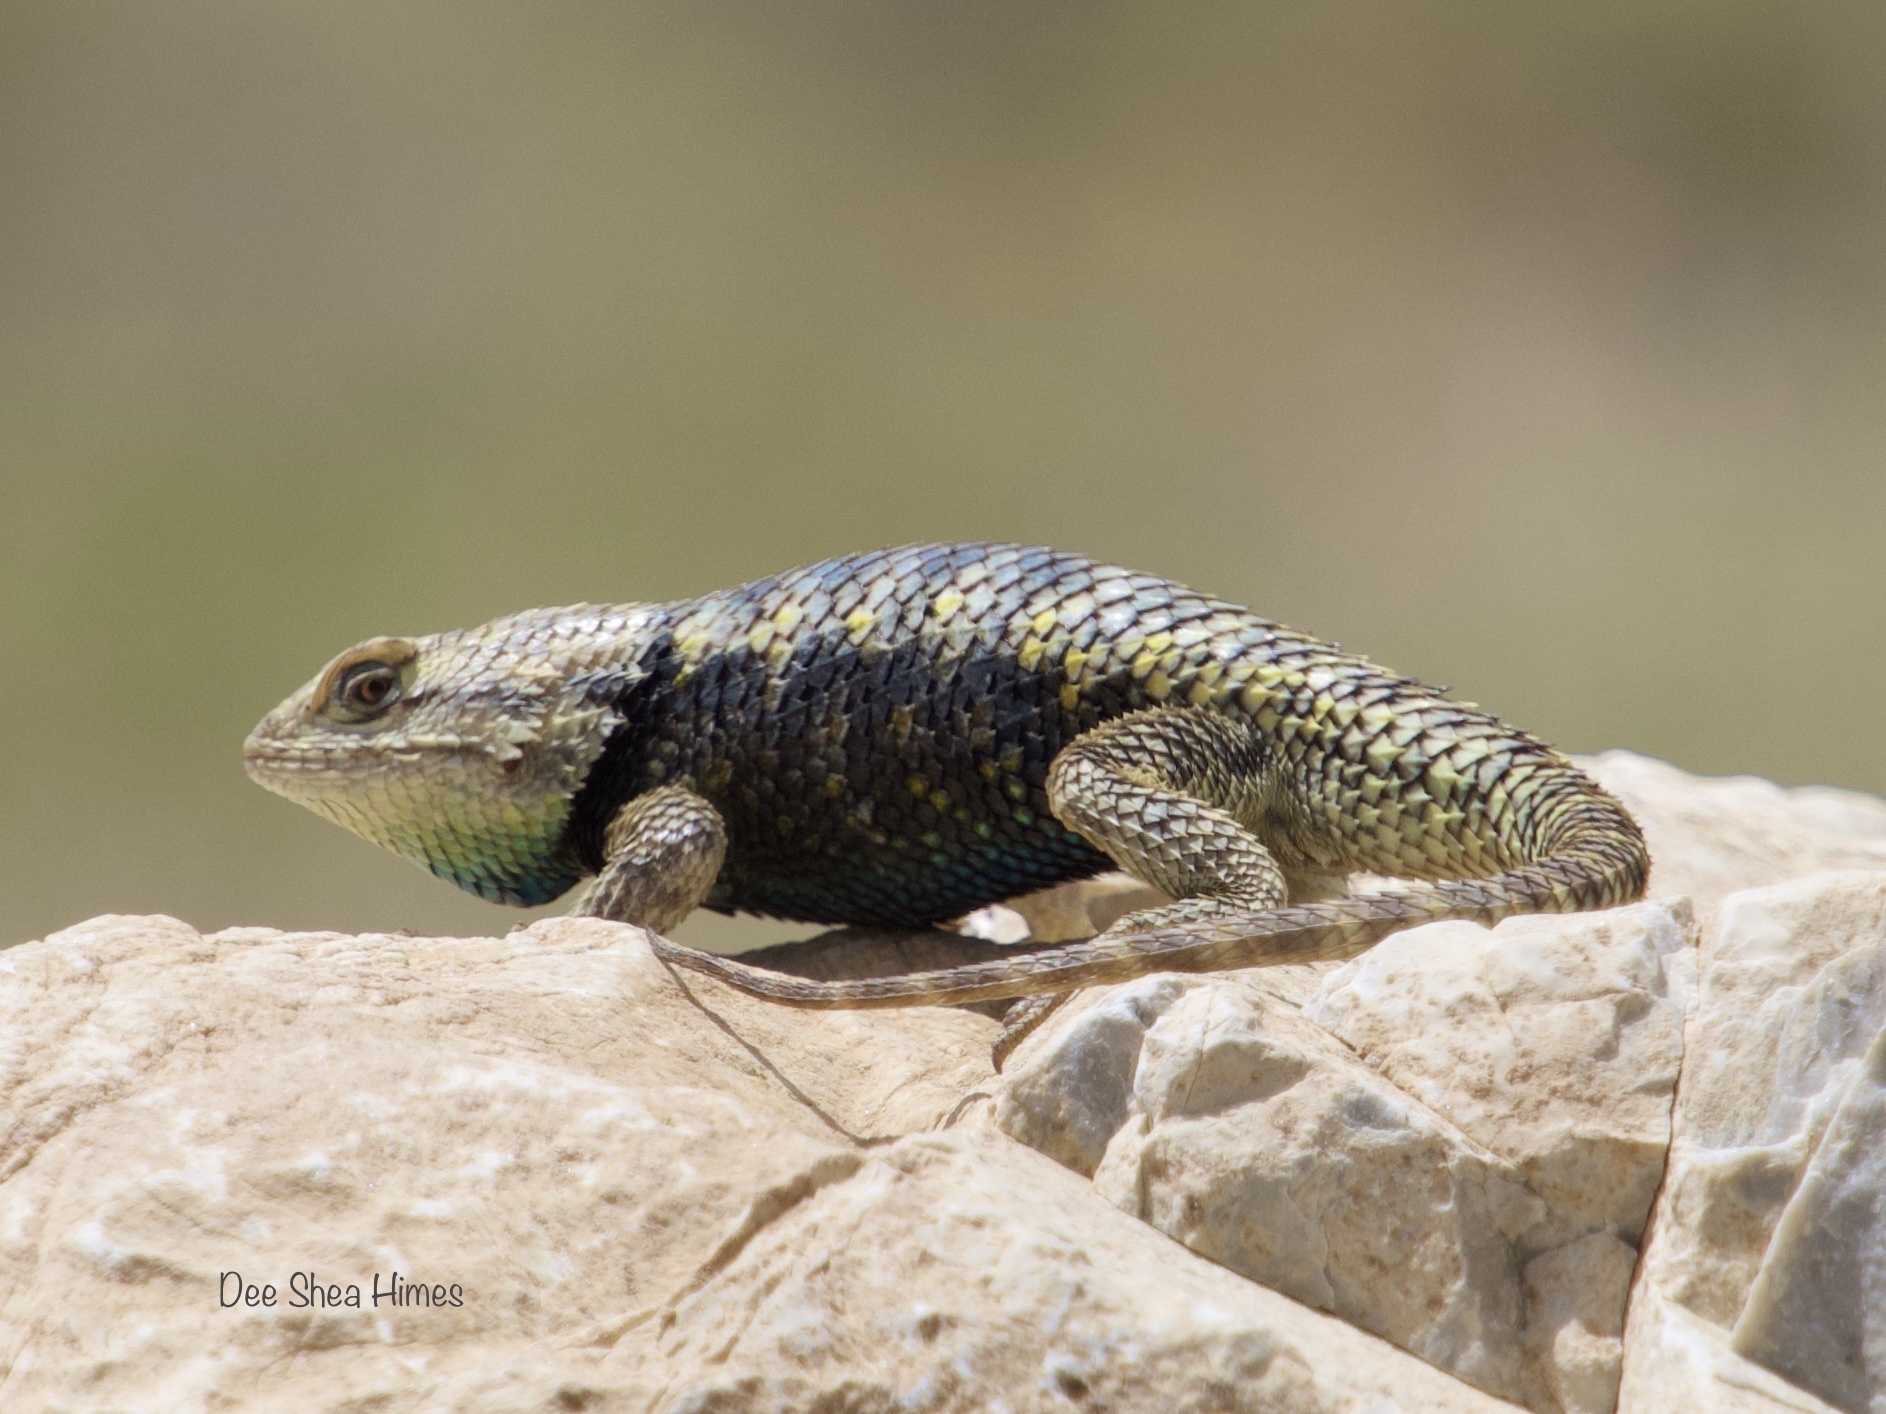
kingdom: Animalia
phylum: Chordata
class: Squamata
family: Phrynosomatidae
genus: Sceloporus
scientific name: Sceloporus uniformis
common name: Yellow-backed spiny lizard
